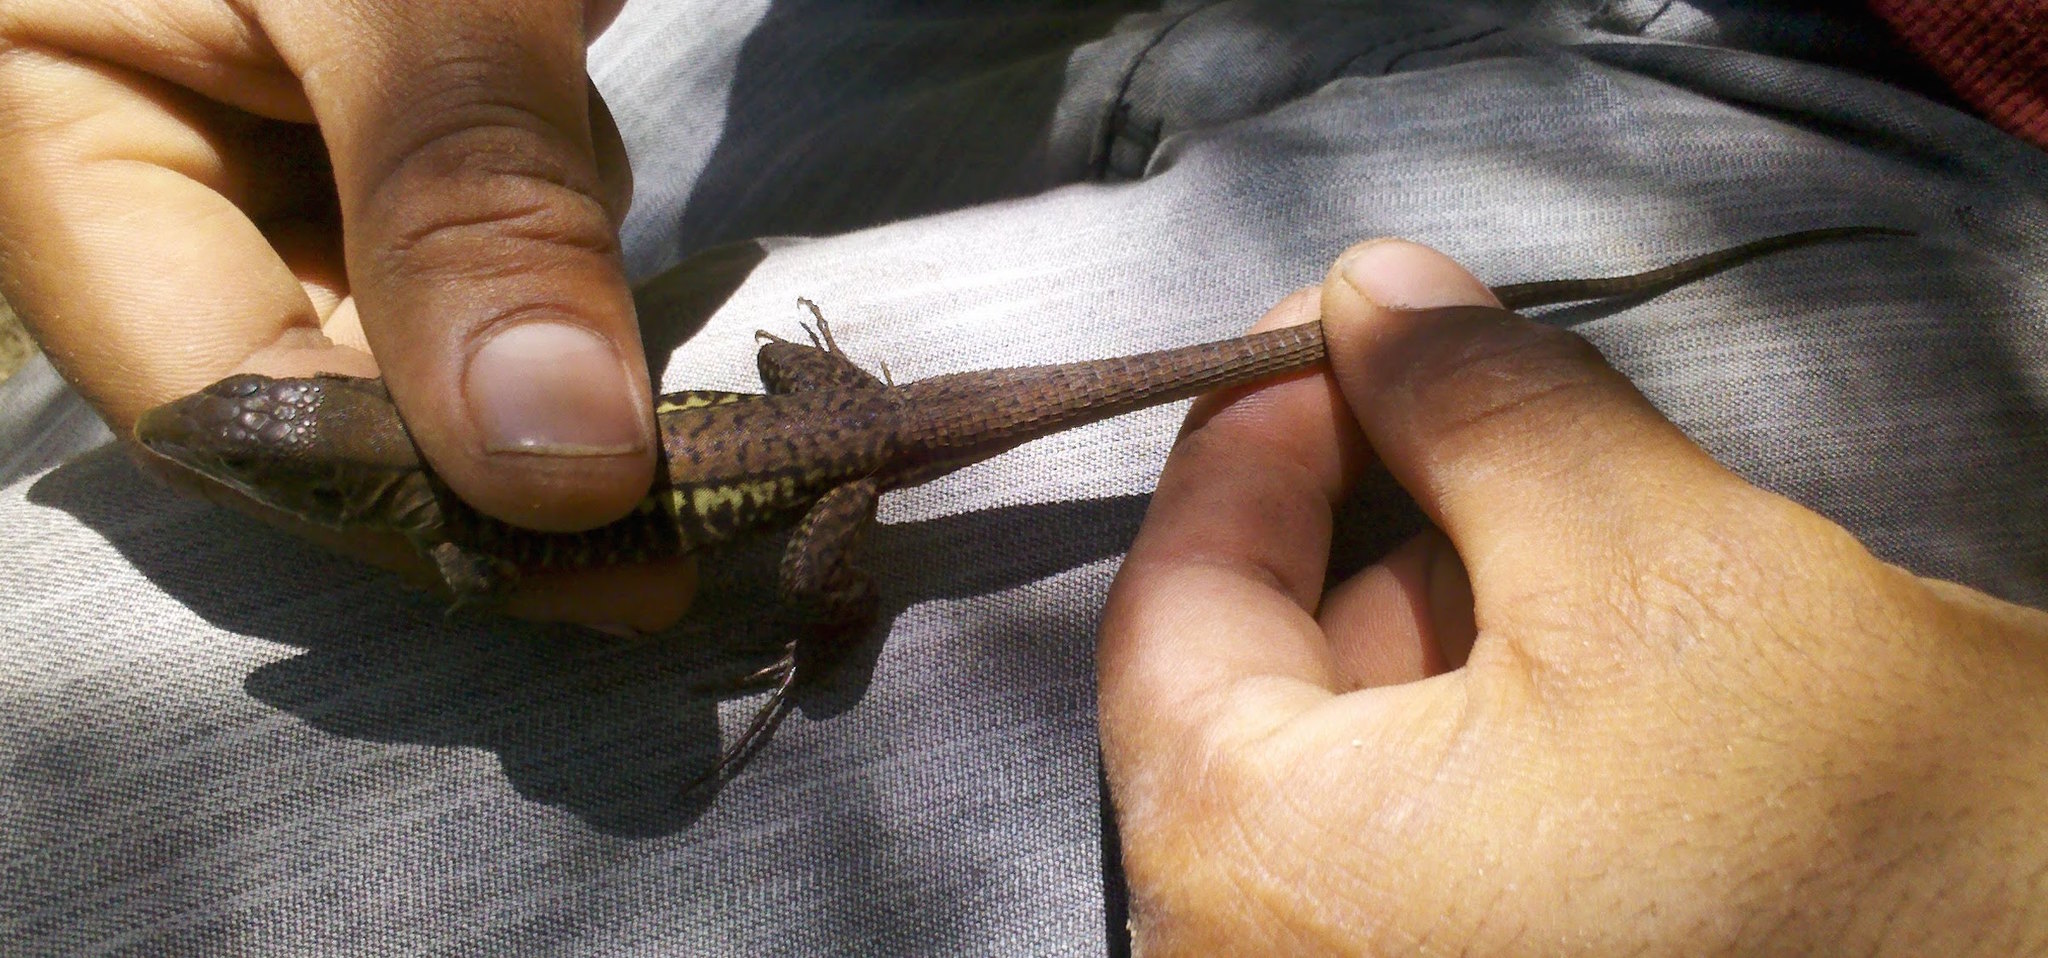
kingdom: Animalia
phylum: Chordata
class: Squamata
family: Teiidae
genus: Holcosus
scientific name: Holcosus undulatus
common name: Rainbow ameiva
